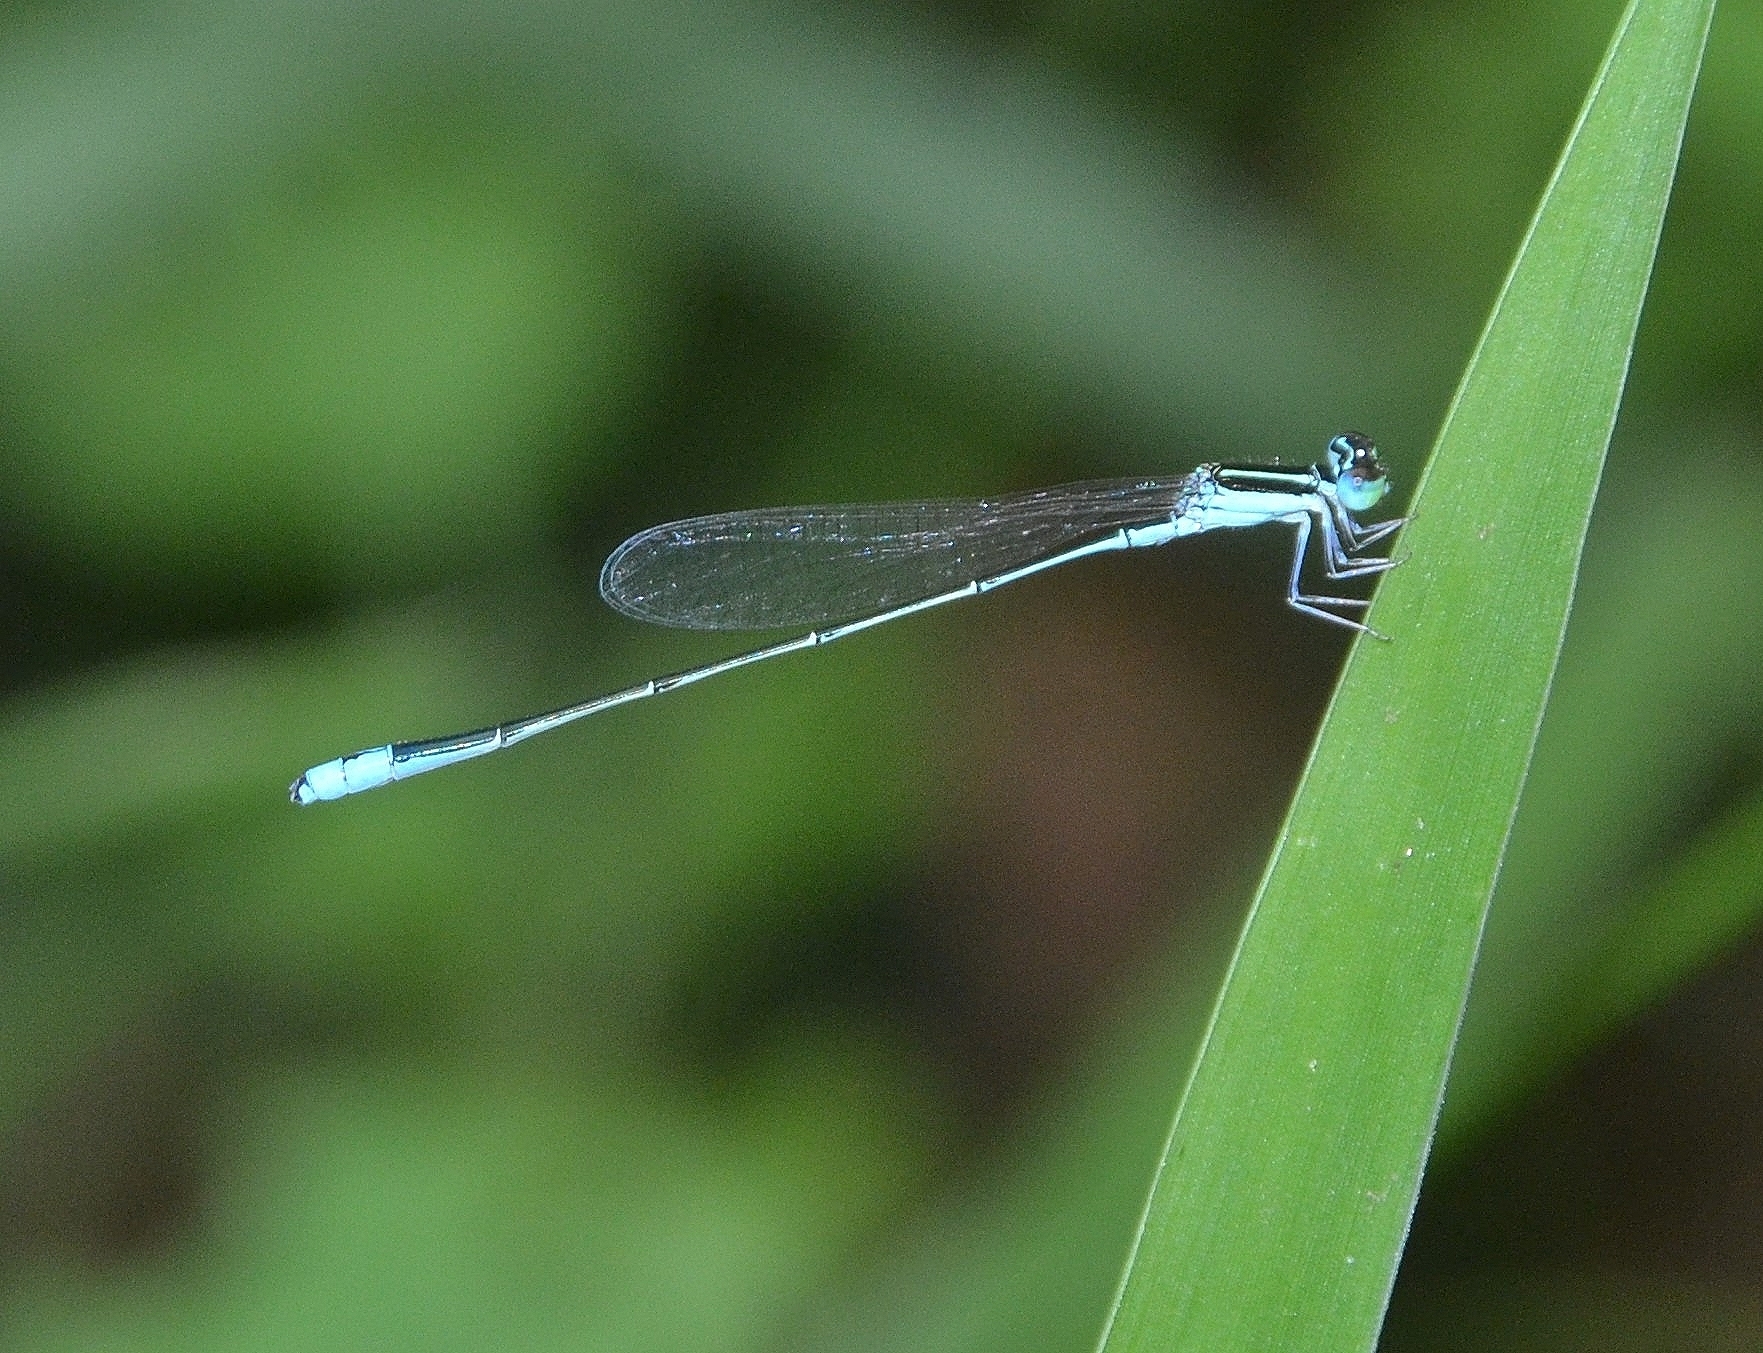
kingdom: Animalia
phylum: Arthropoda
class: Insecta
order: Odonata
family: Coenagrionidae
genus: Aciagrion
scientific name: Aciagrion occidentale
